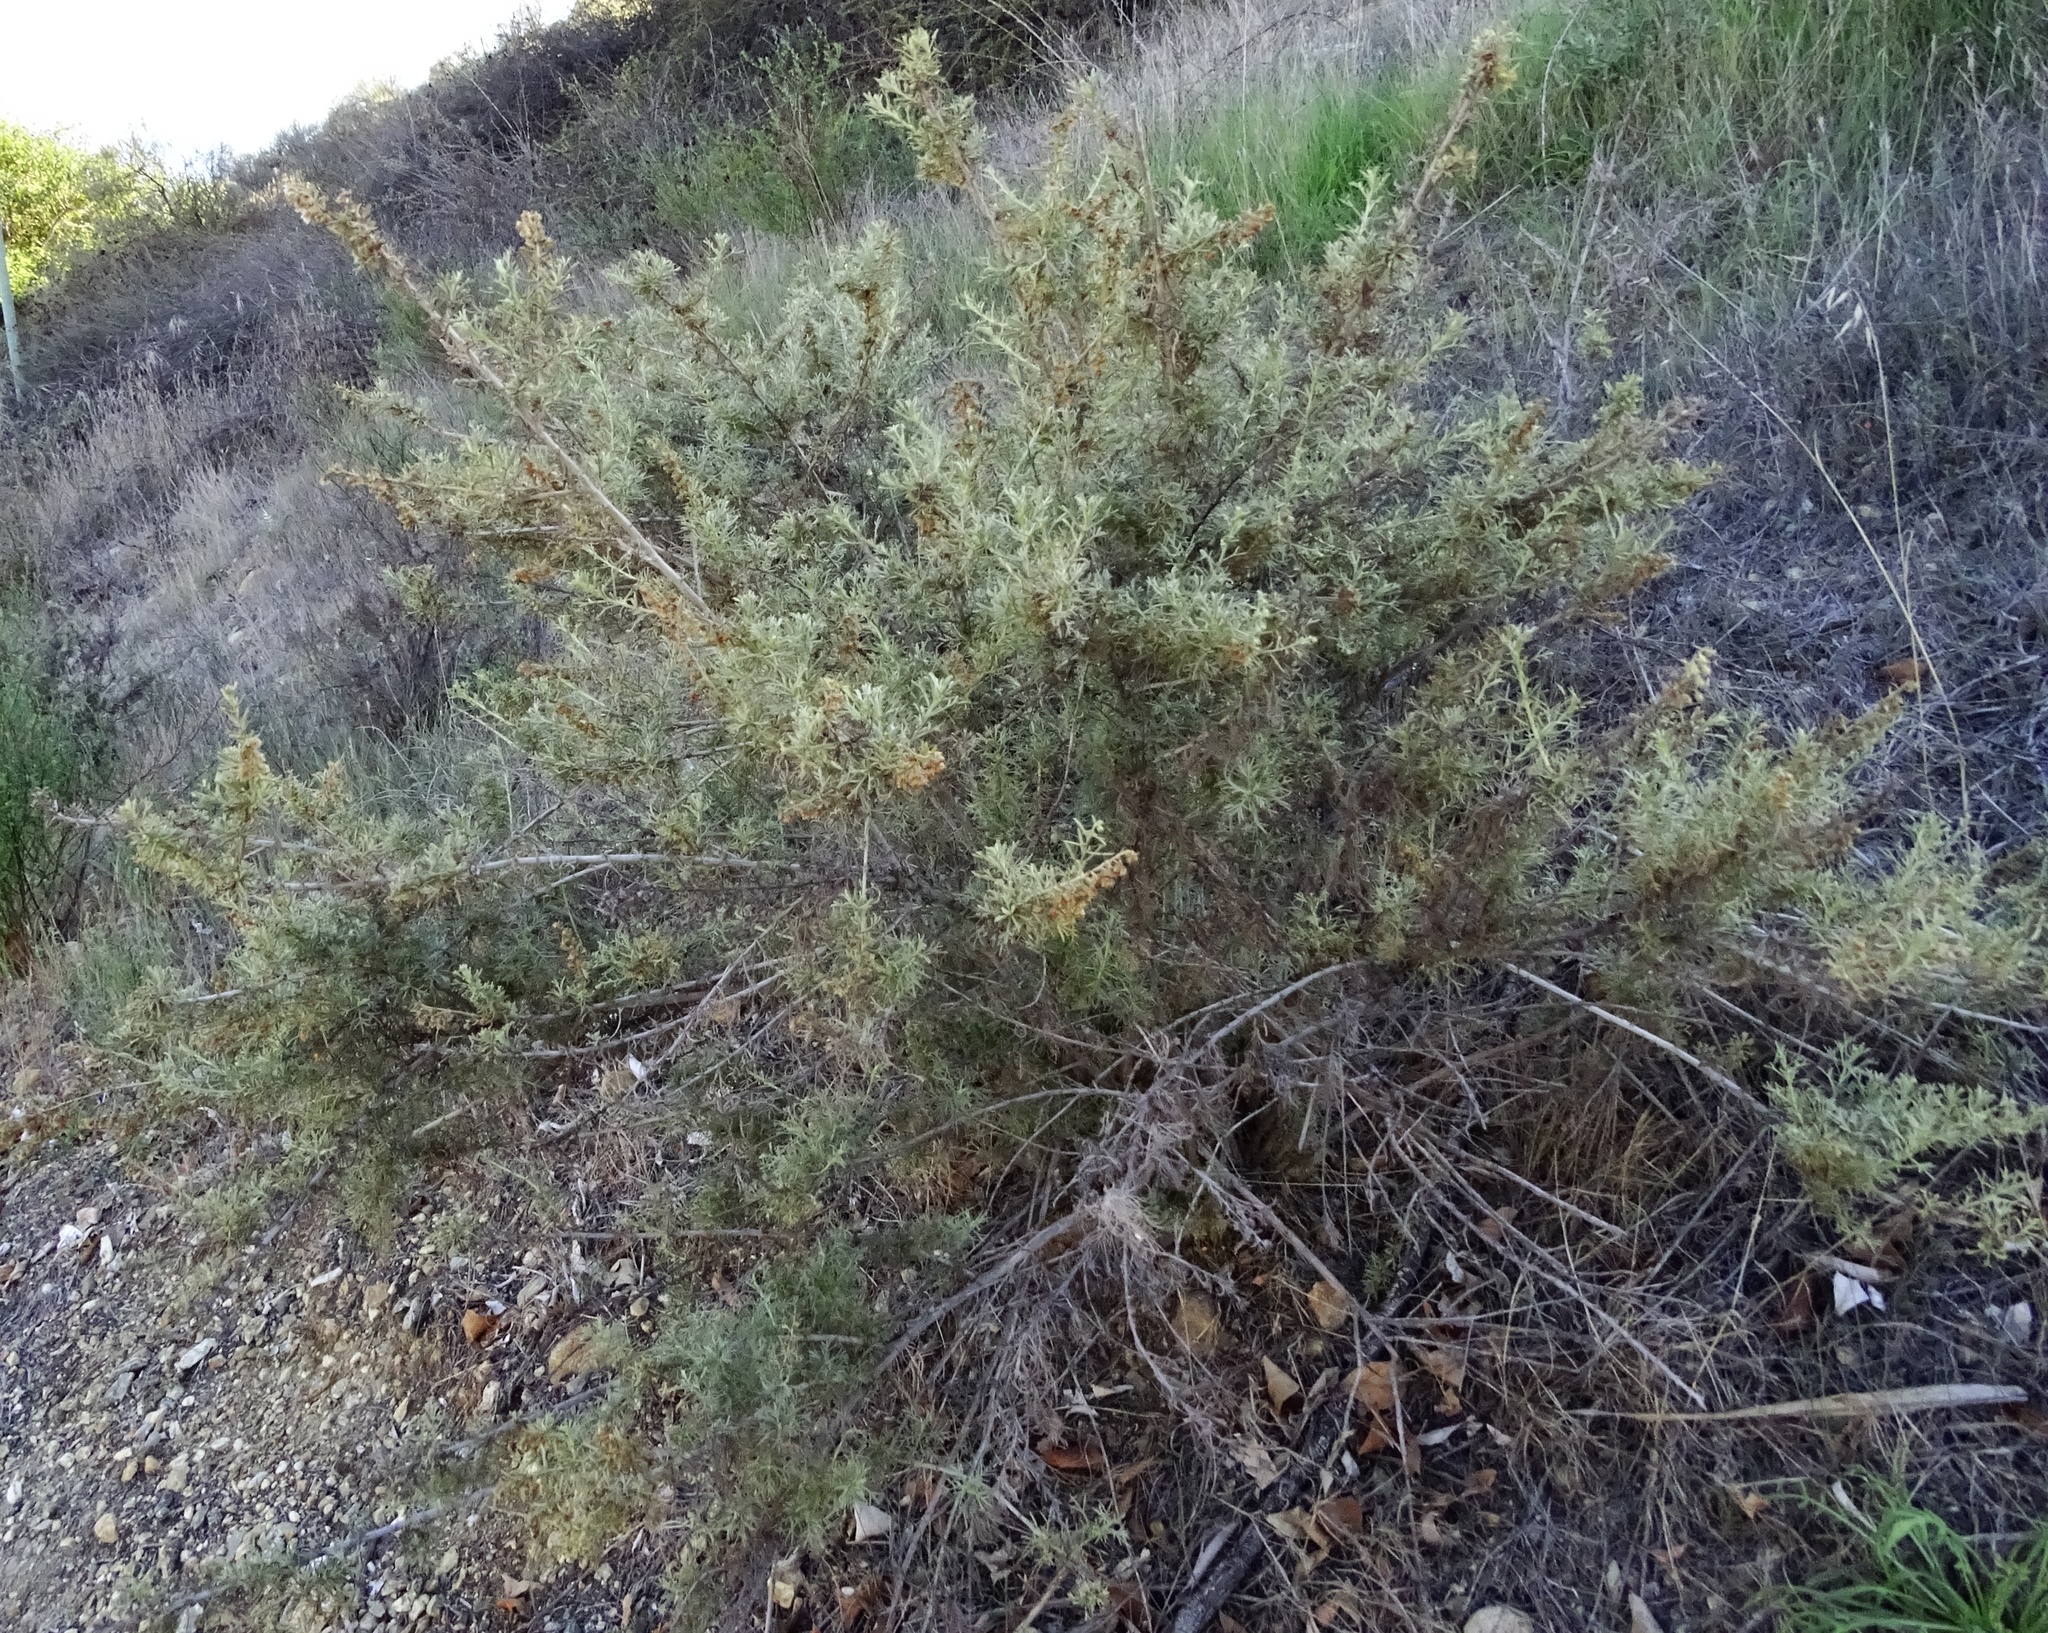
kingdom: Plantae
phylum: Tracheophyta
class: Magnoliopsida
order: Asterales
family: Asteraceae
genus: Artemisia
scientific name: Artemisia californica
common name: California sagebrush
